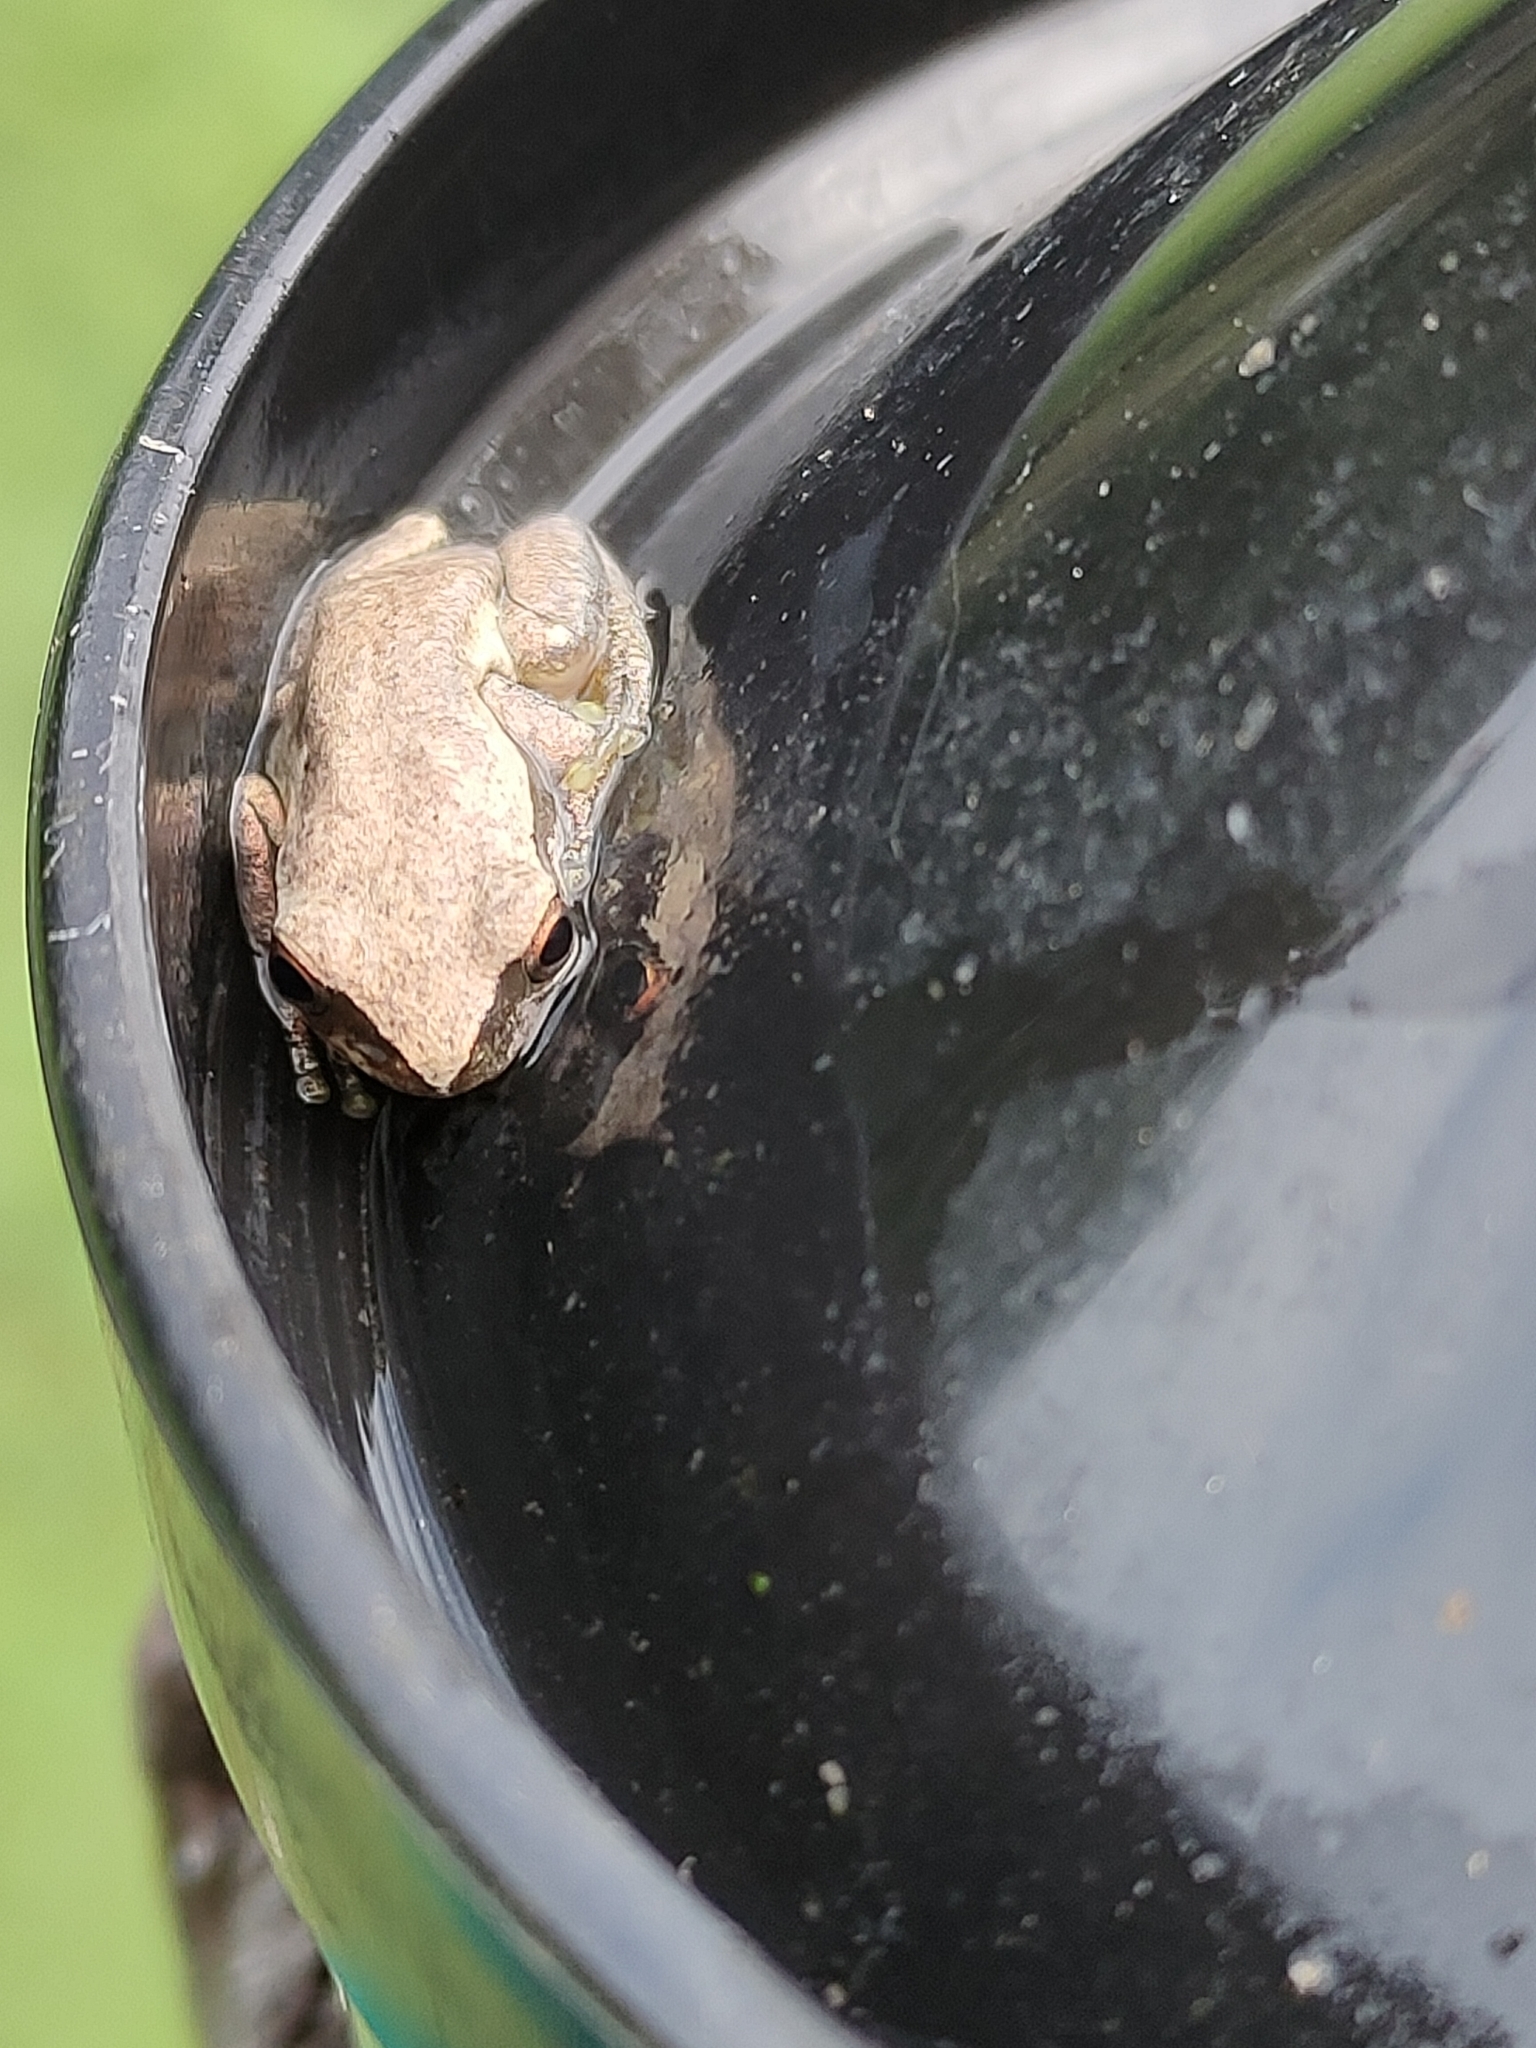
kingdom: Animalia
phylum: Chordata
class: Amphibia
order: Anura
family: Pelodryadidae
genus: Litoria
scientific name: Litoria rubella
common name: Desert tree frog
